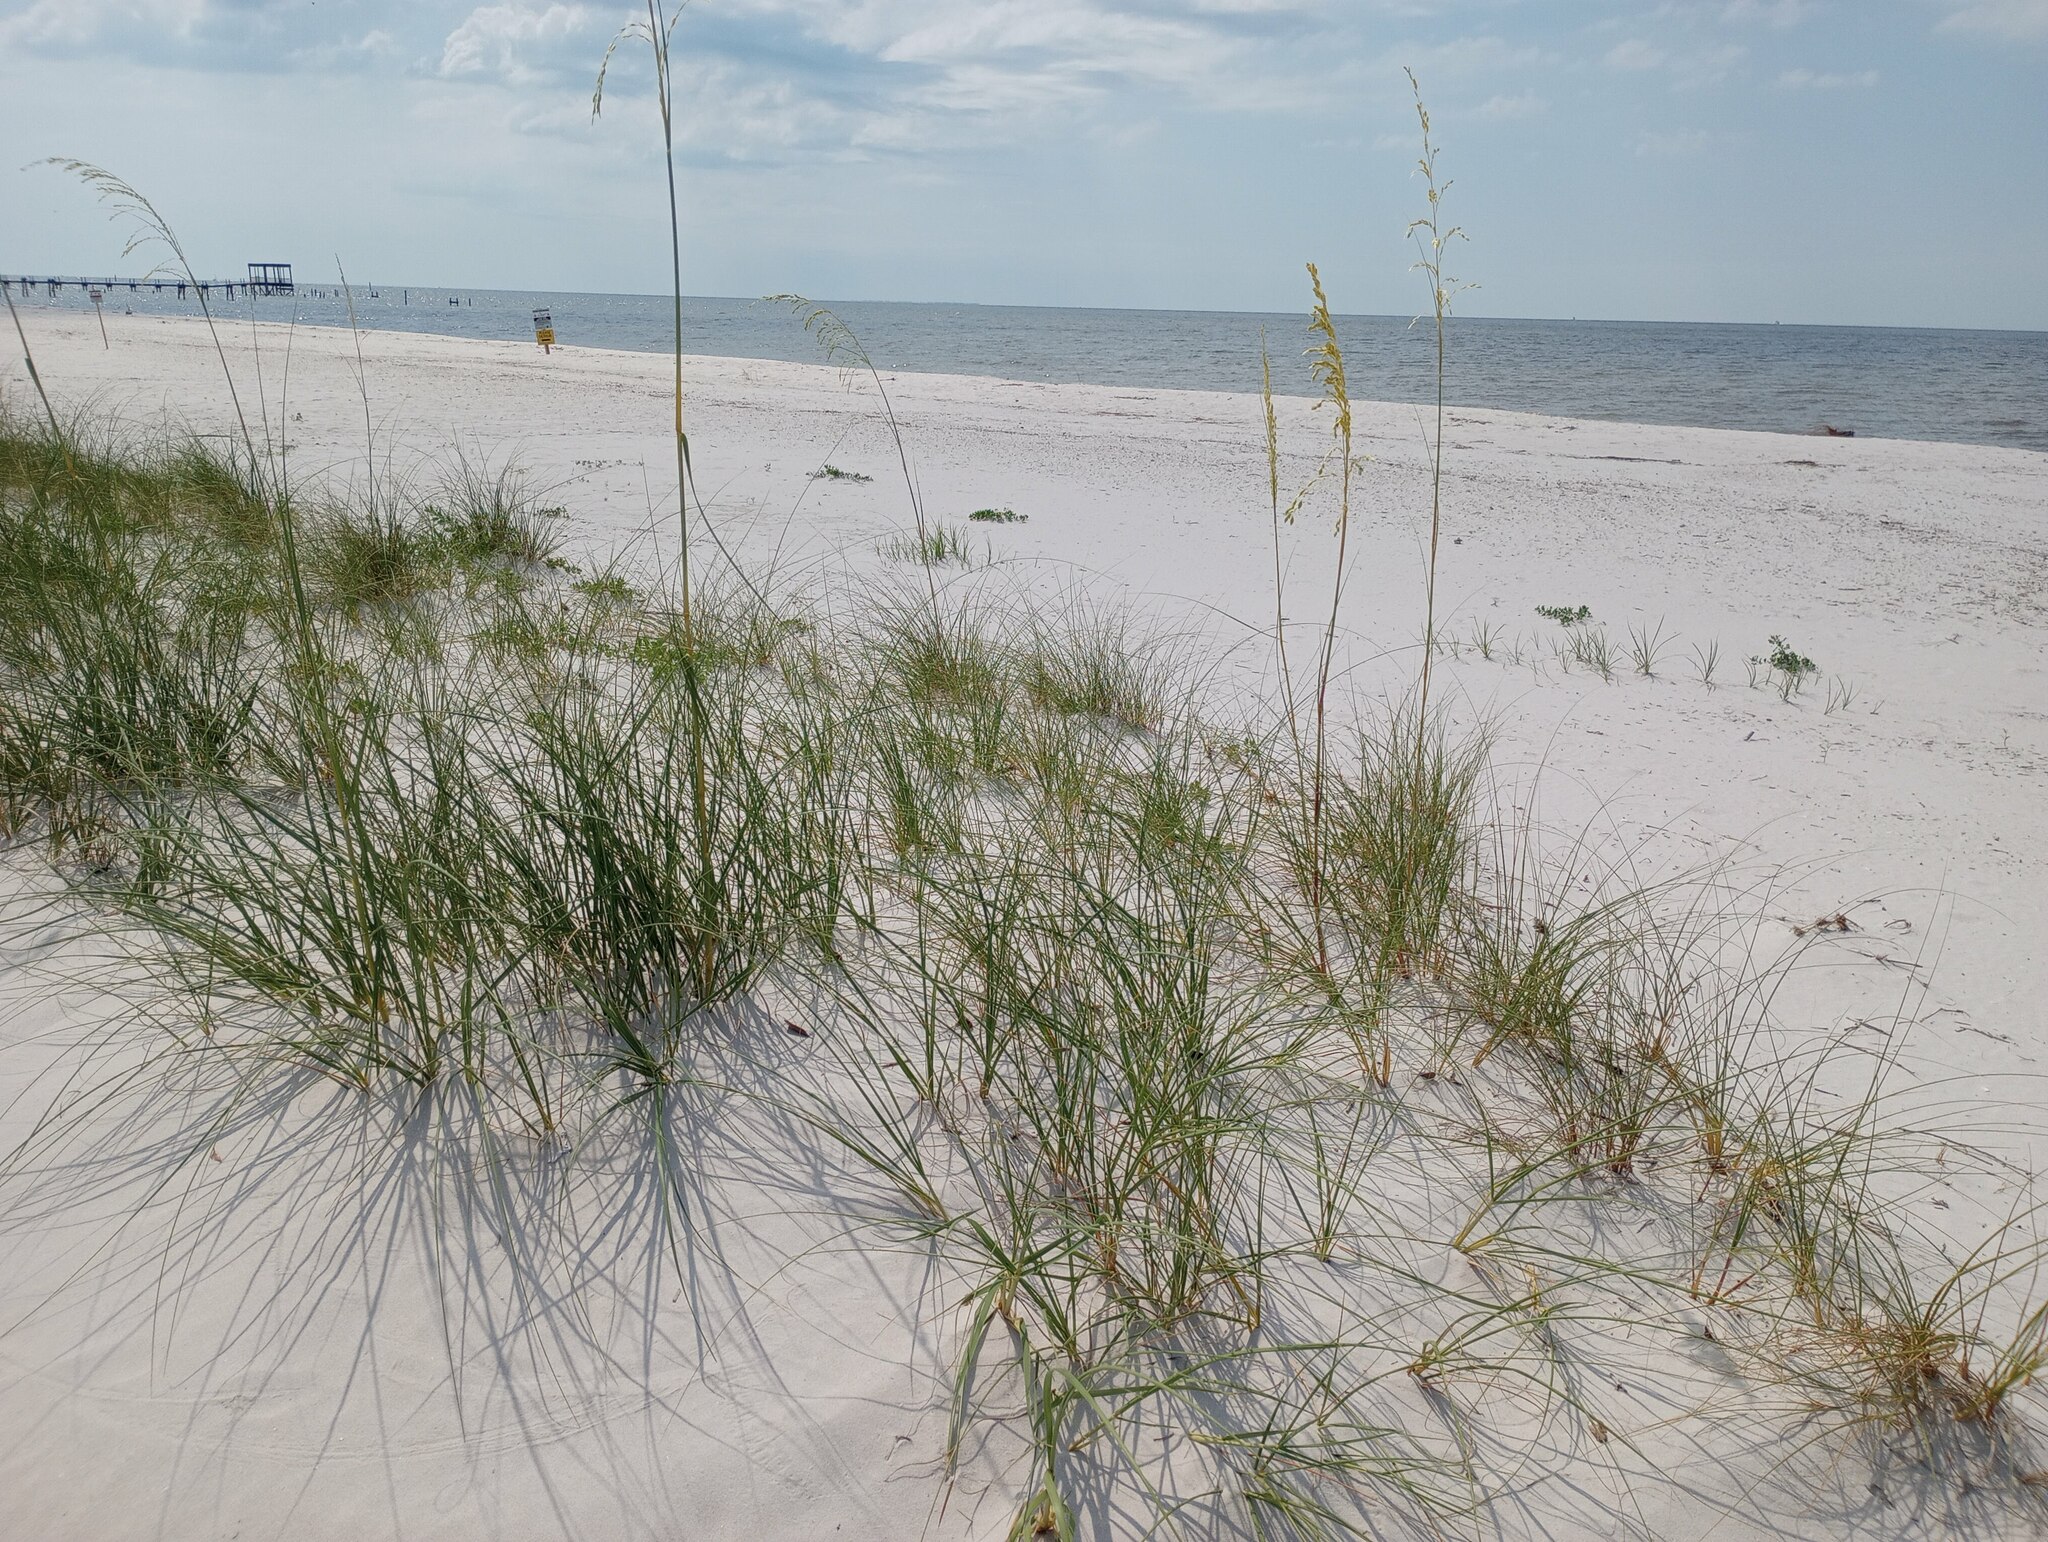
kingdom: Plantae
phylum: Tracheophyta
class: Liliopsida
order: Poales
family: Poaceae
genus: Uniola
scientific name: Uniola paniculata
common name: Seaside-oats
